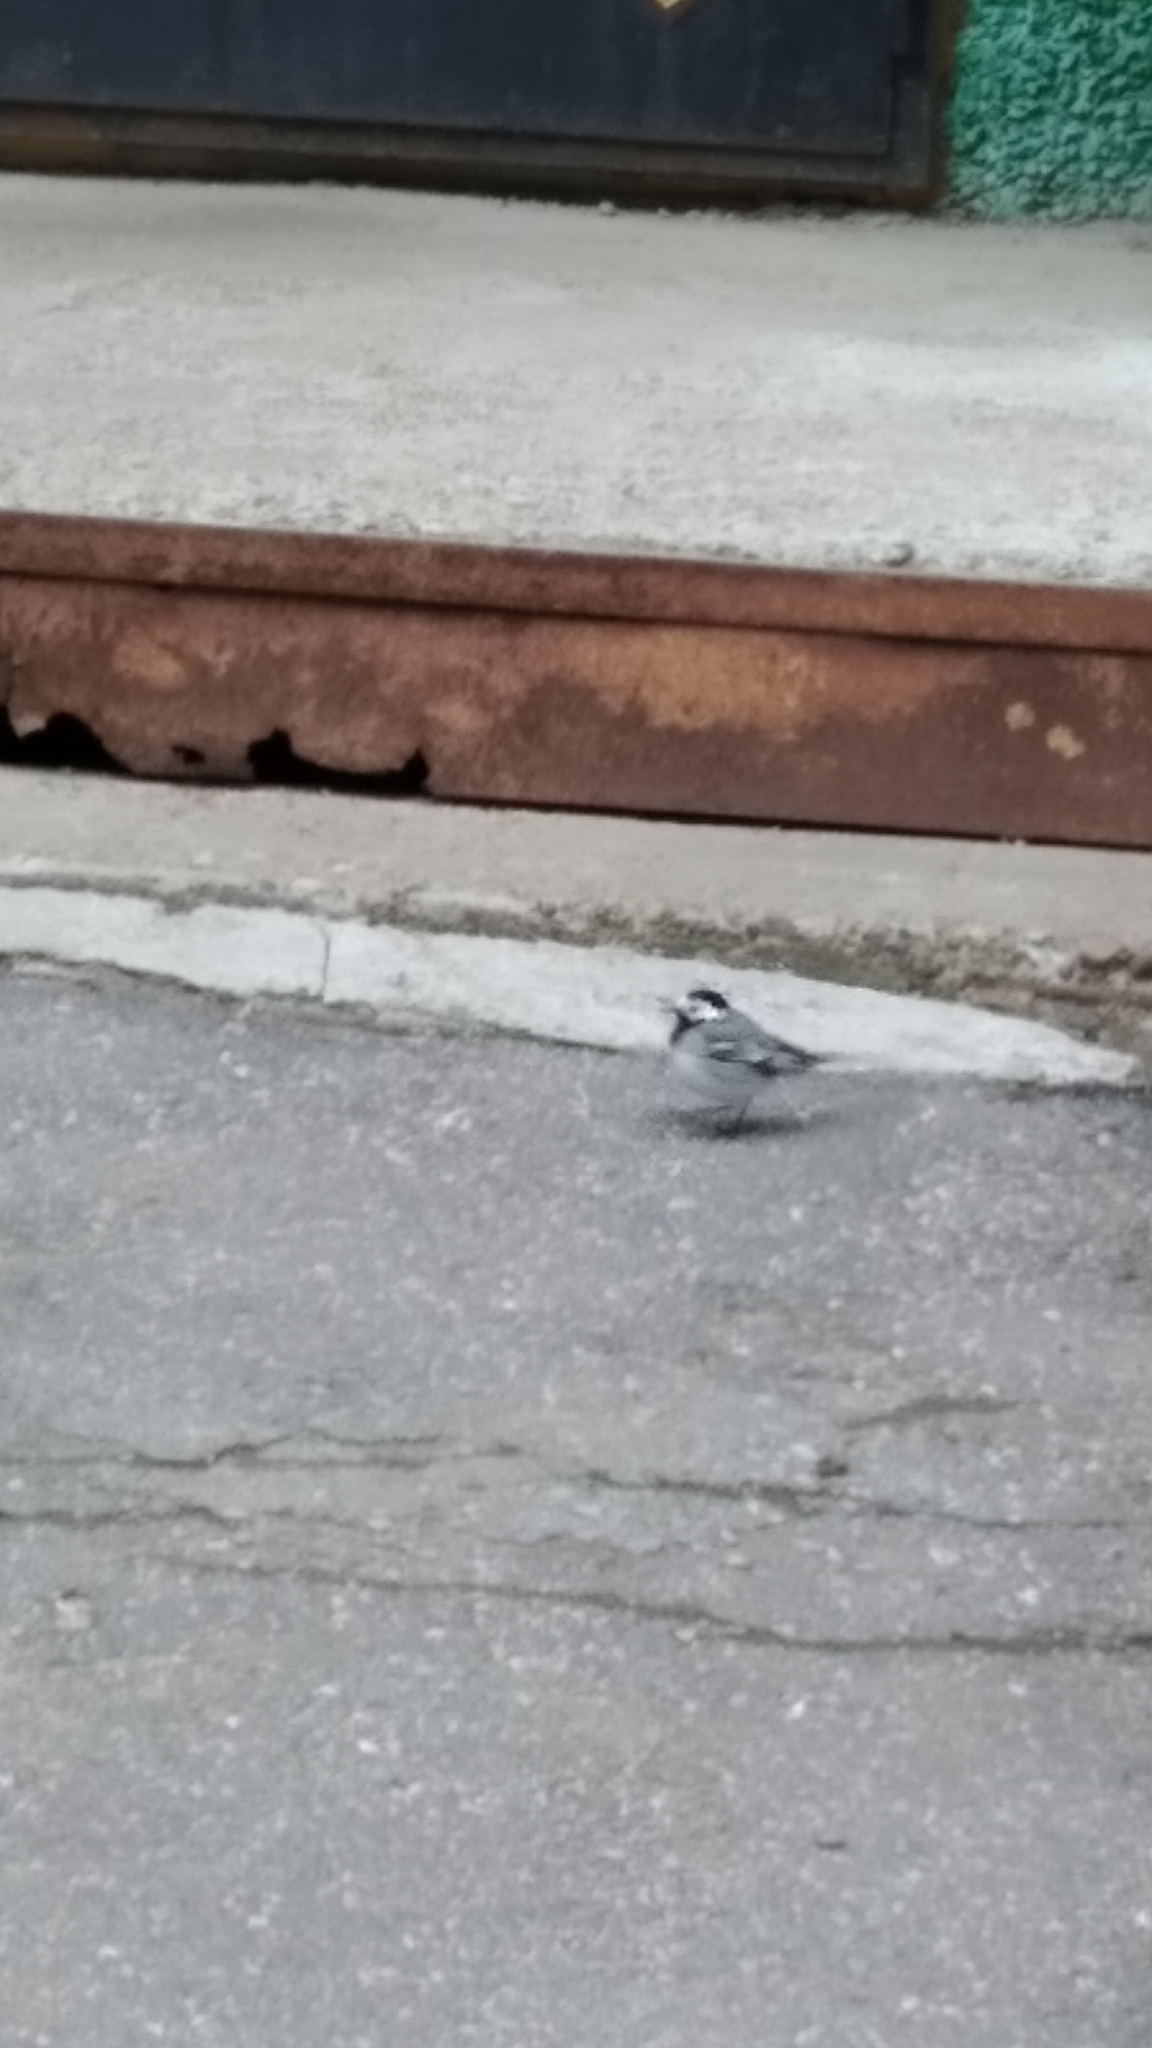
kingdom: Animalia
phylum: Chordata
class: Aves
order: Passeriformes
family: Motacillidae
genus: Motacilla
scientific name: Motacilla alba
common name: White wagtail
